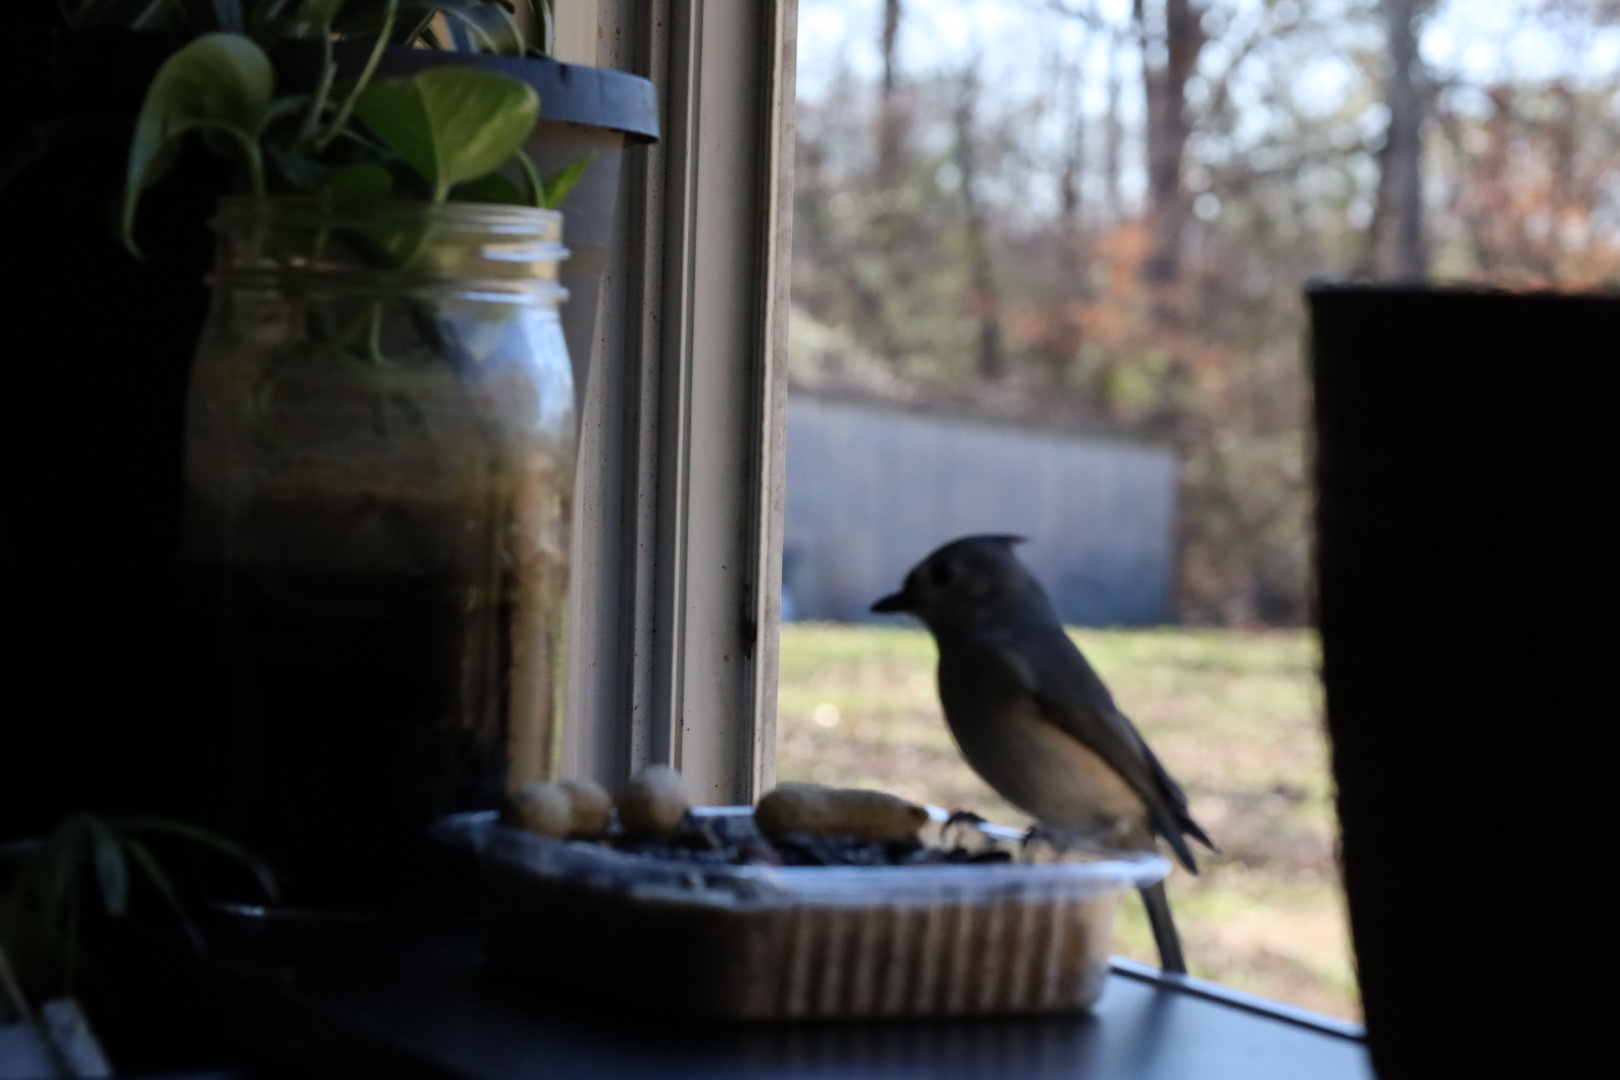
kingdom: Animalia
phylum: Chordata
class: Aves
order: Passeriformes
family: Paridae
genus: Baeolophus
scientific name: Baeolophus bicolor
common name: Tufted titmouse
